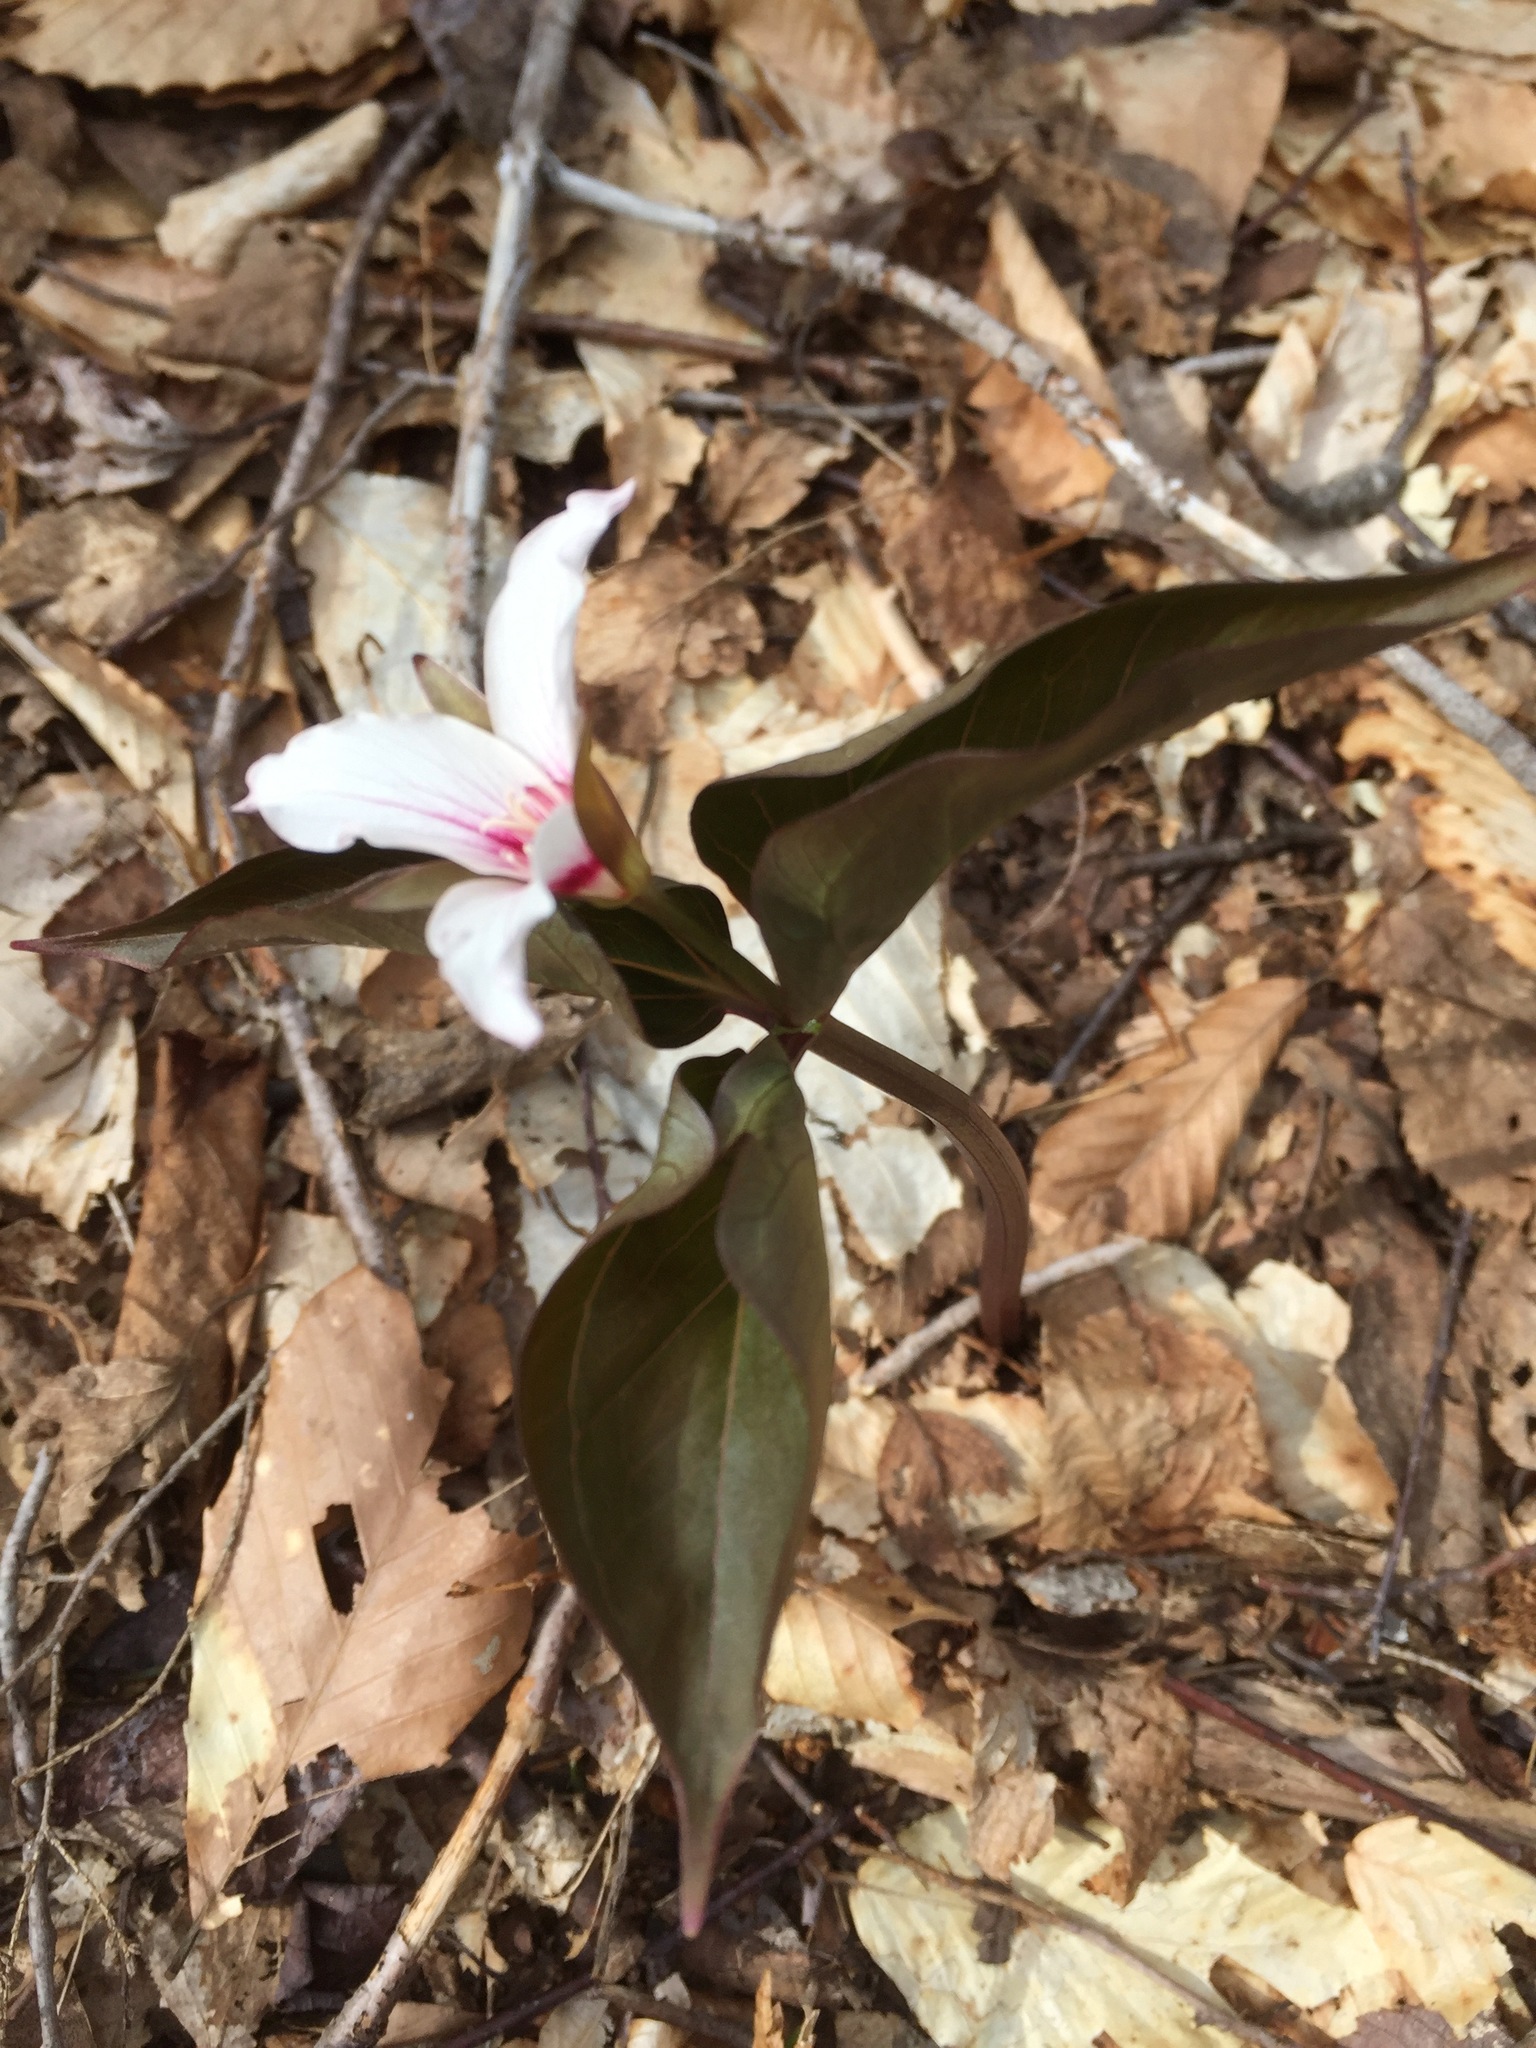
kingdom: Plantae
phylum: Tracheophyta
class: Liliopsida
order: Liliales
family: Melanthiaceae
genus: Trillium
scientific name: Trillium undulatum
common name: Paint trillium
